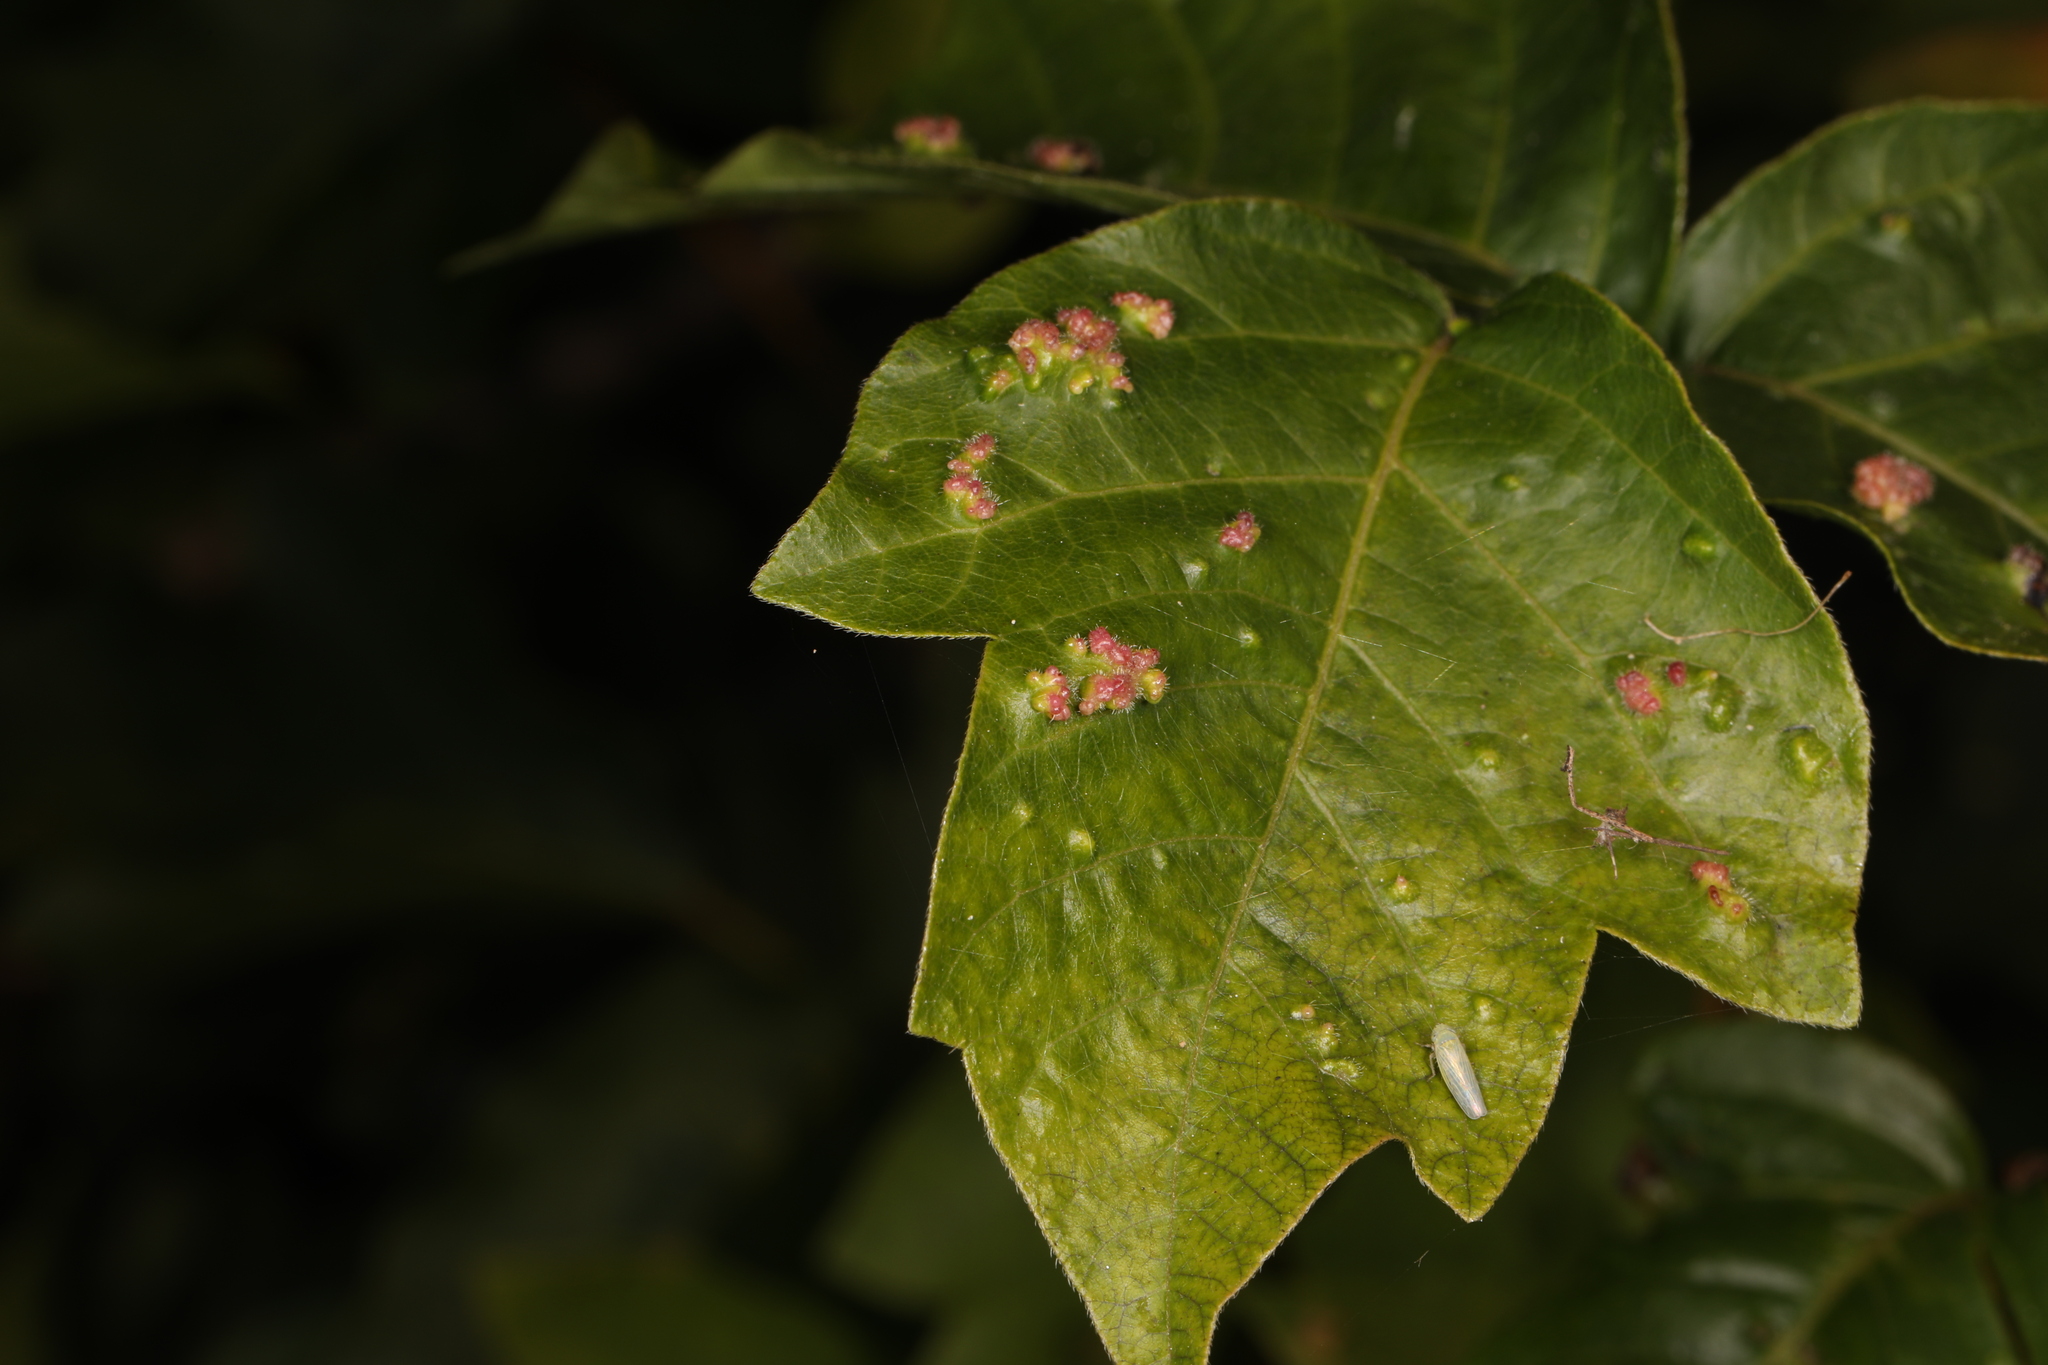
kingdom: Animalia
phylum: Arthropoda
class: Arachnida
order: Trombidiformes
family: Eriophyidae
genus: Aculops
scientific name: Aculops
